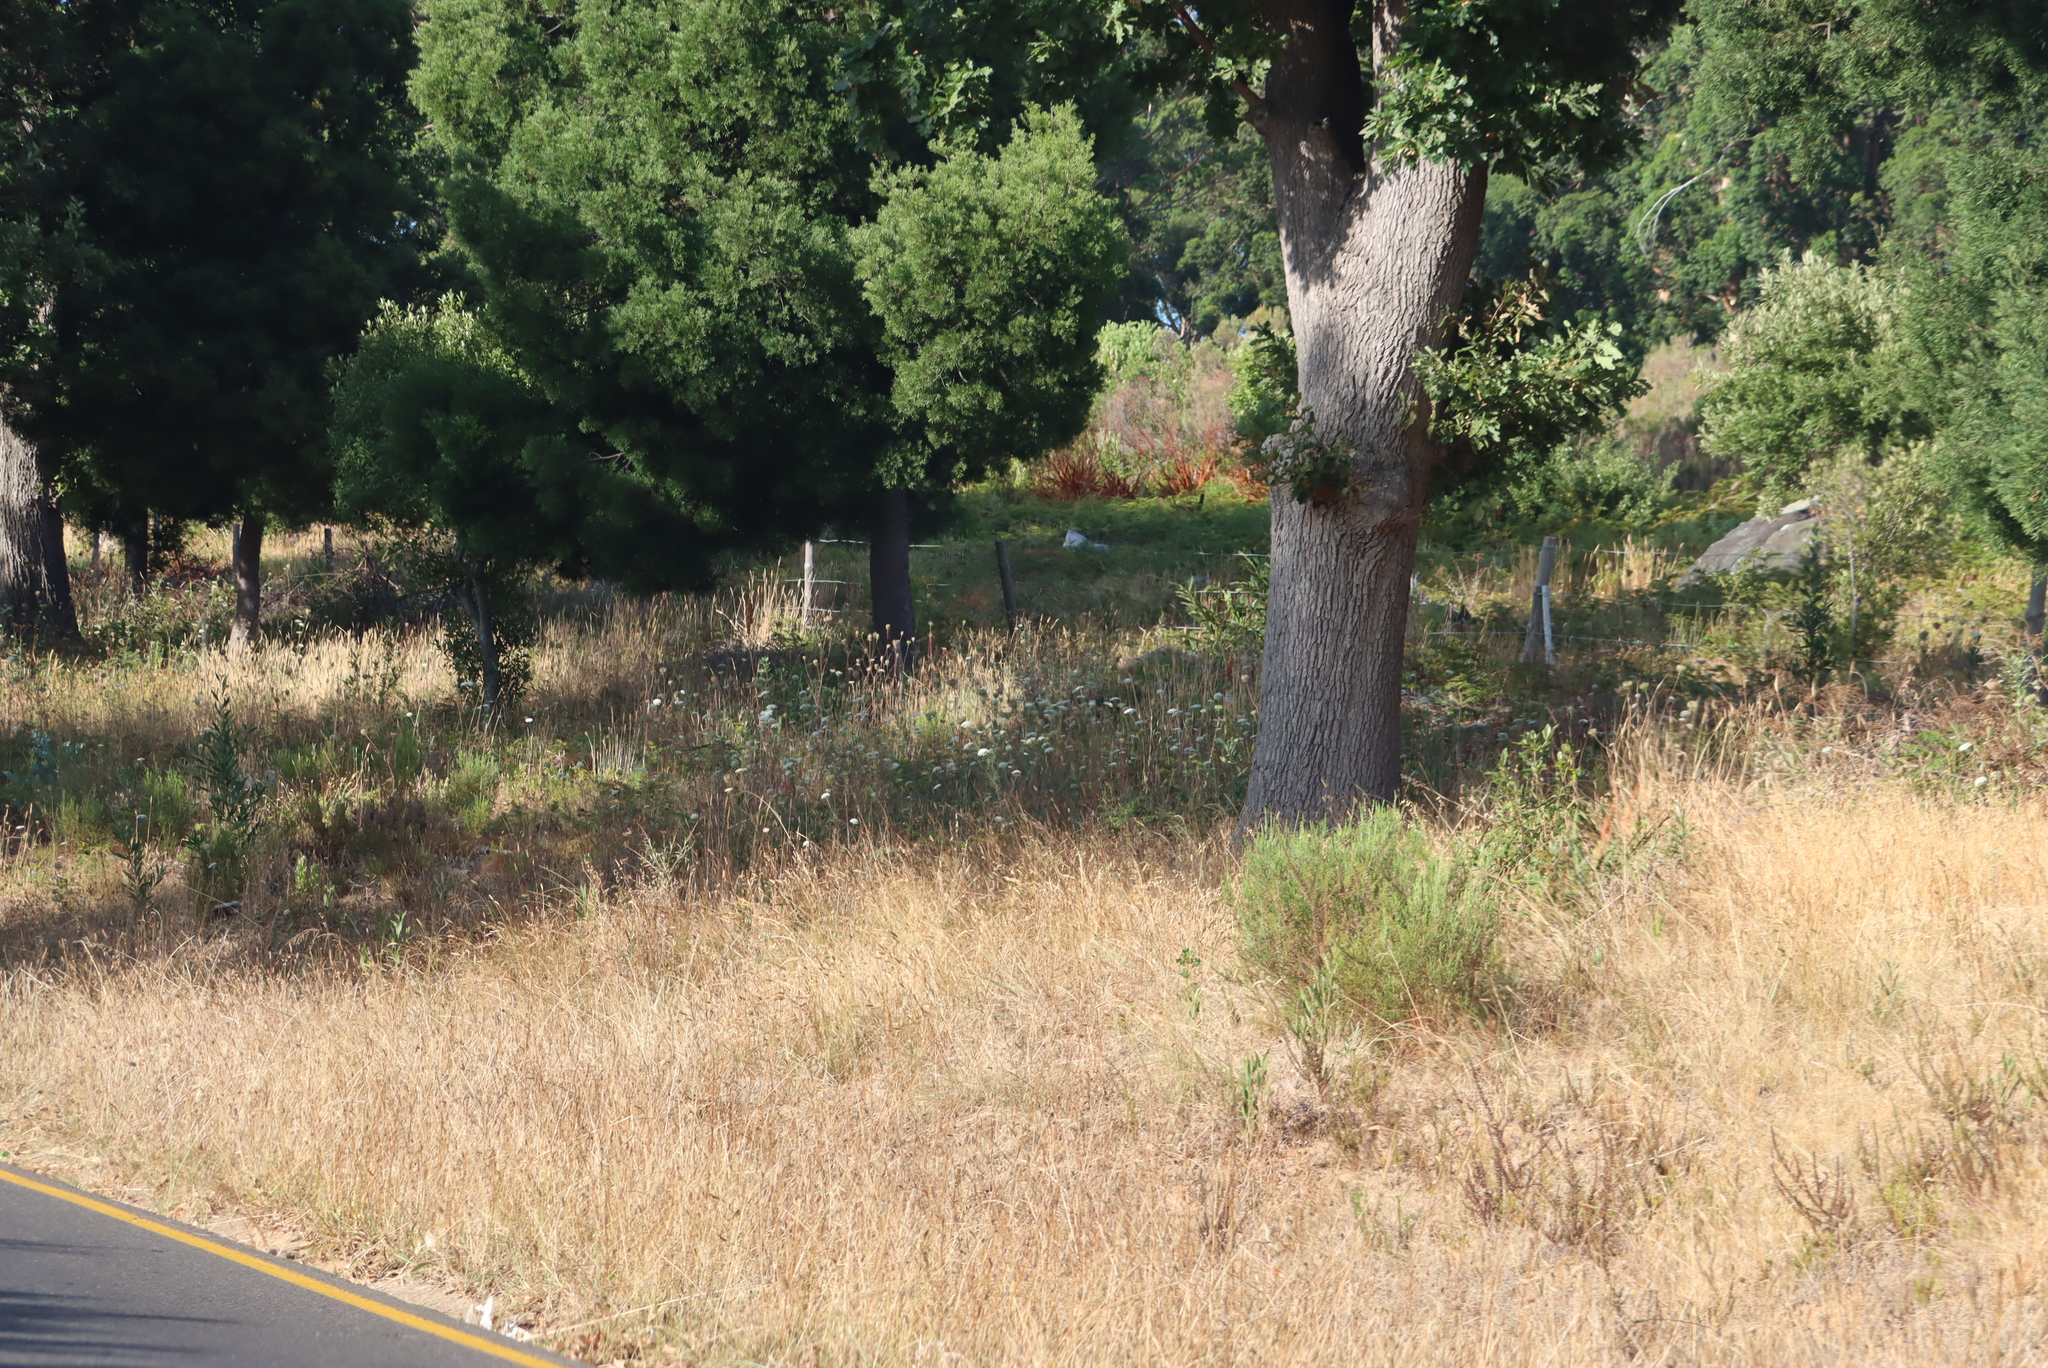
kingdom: Plantae
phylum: Tracheophyta
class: Magnoliopsida
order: Apiales
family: Apiaceae
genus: Daucus
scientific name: Daucus carota
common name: Wild carrot
